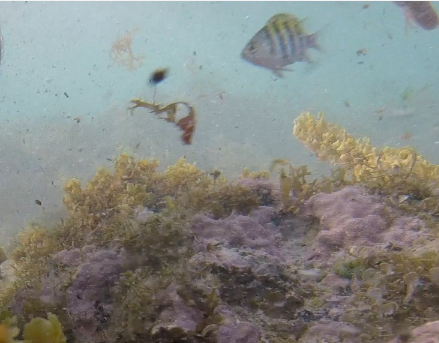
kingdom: Animalia
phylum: Chordata
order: Perciformes
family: Pomacentridae
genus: Abudefduf
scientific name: Abudefduf saxatilis
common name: Sergeant major
